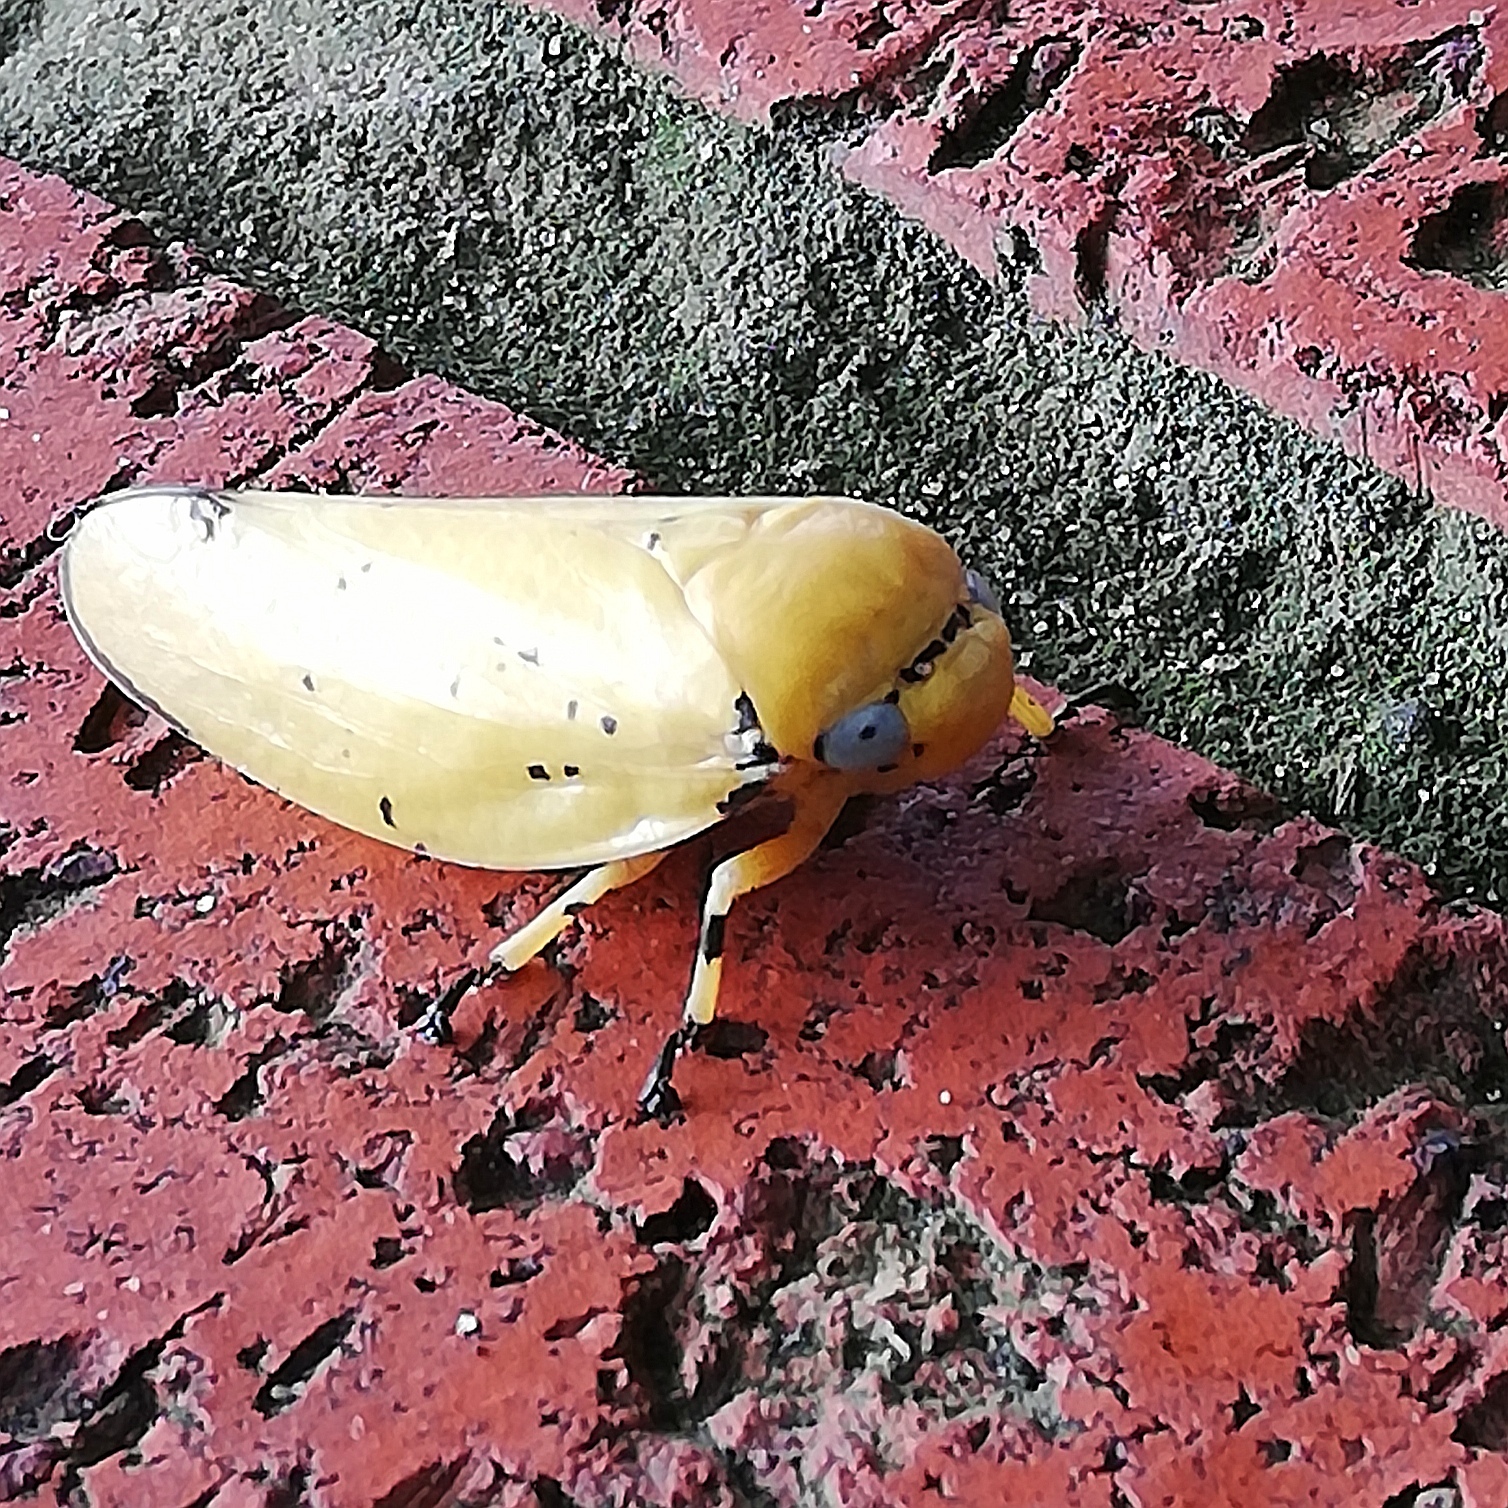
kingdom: Animalia
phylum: Arthropoda
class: Insecta
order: Hemiptera
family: Aphrophoridae
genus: Ptyelus
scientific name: Ptyelus flavescens
